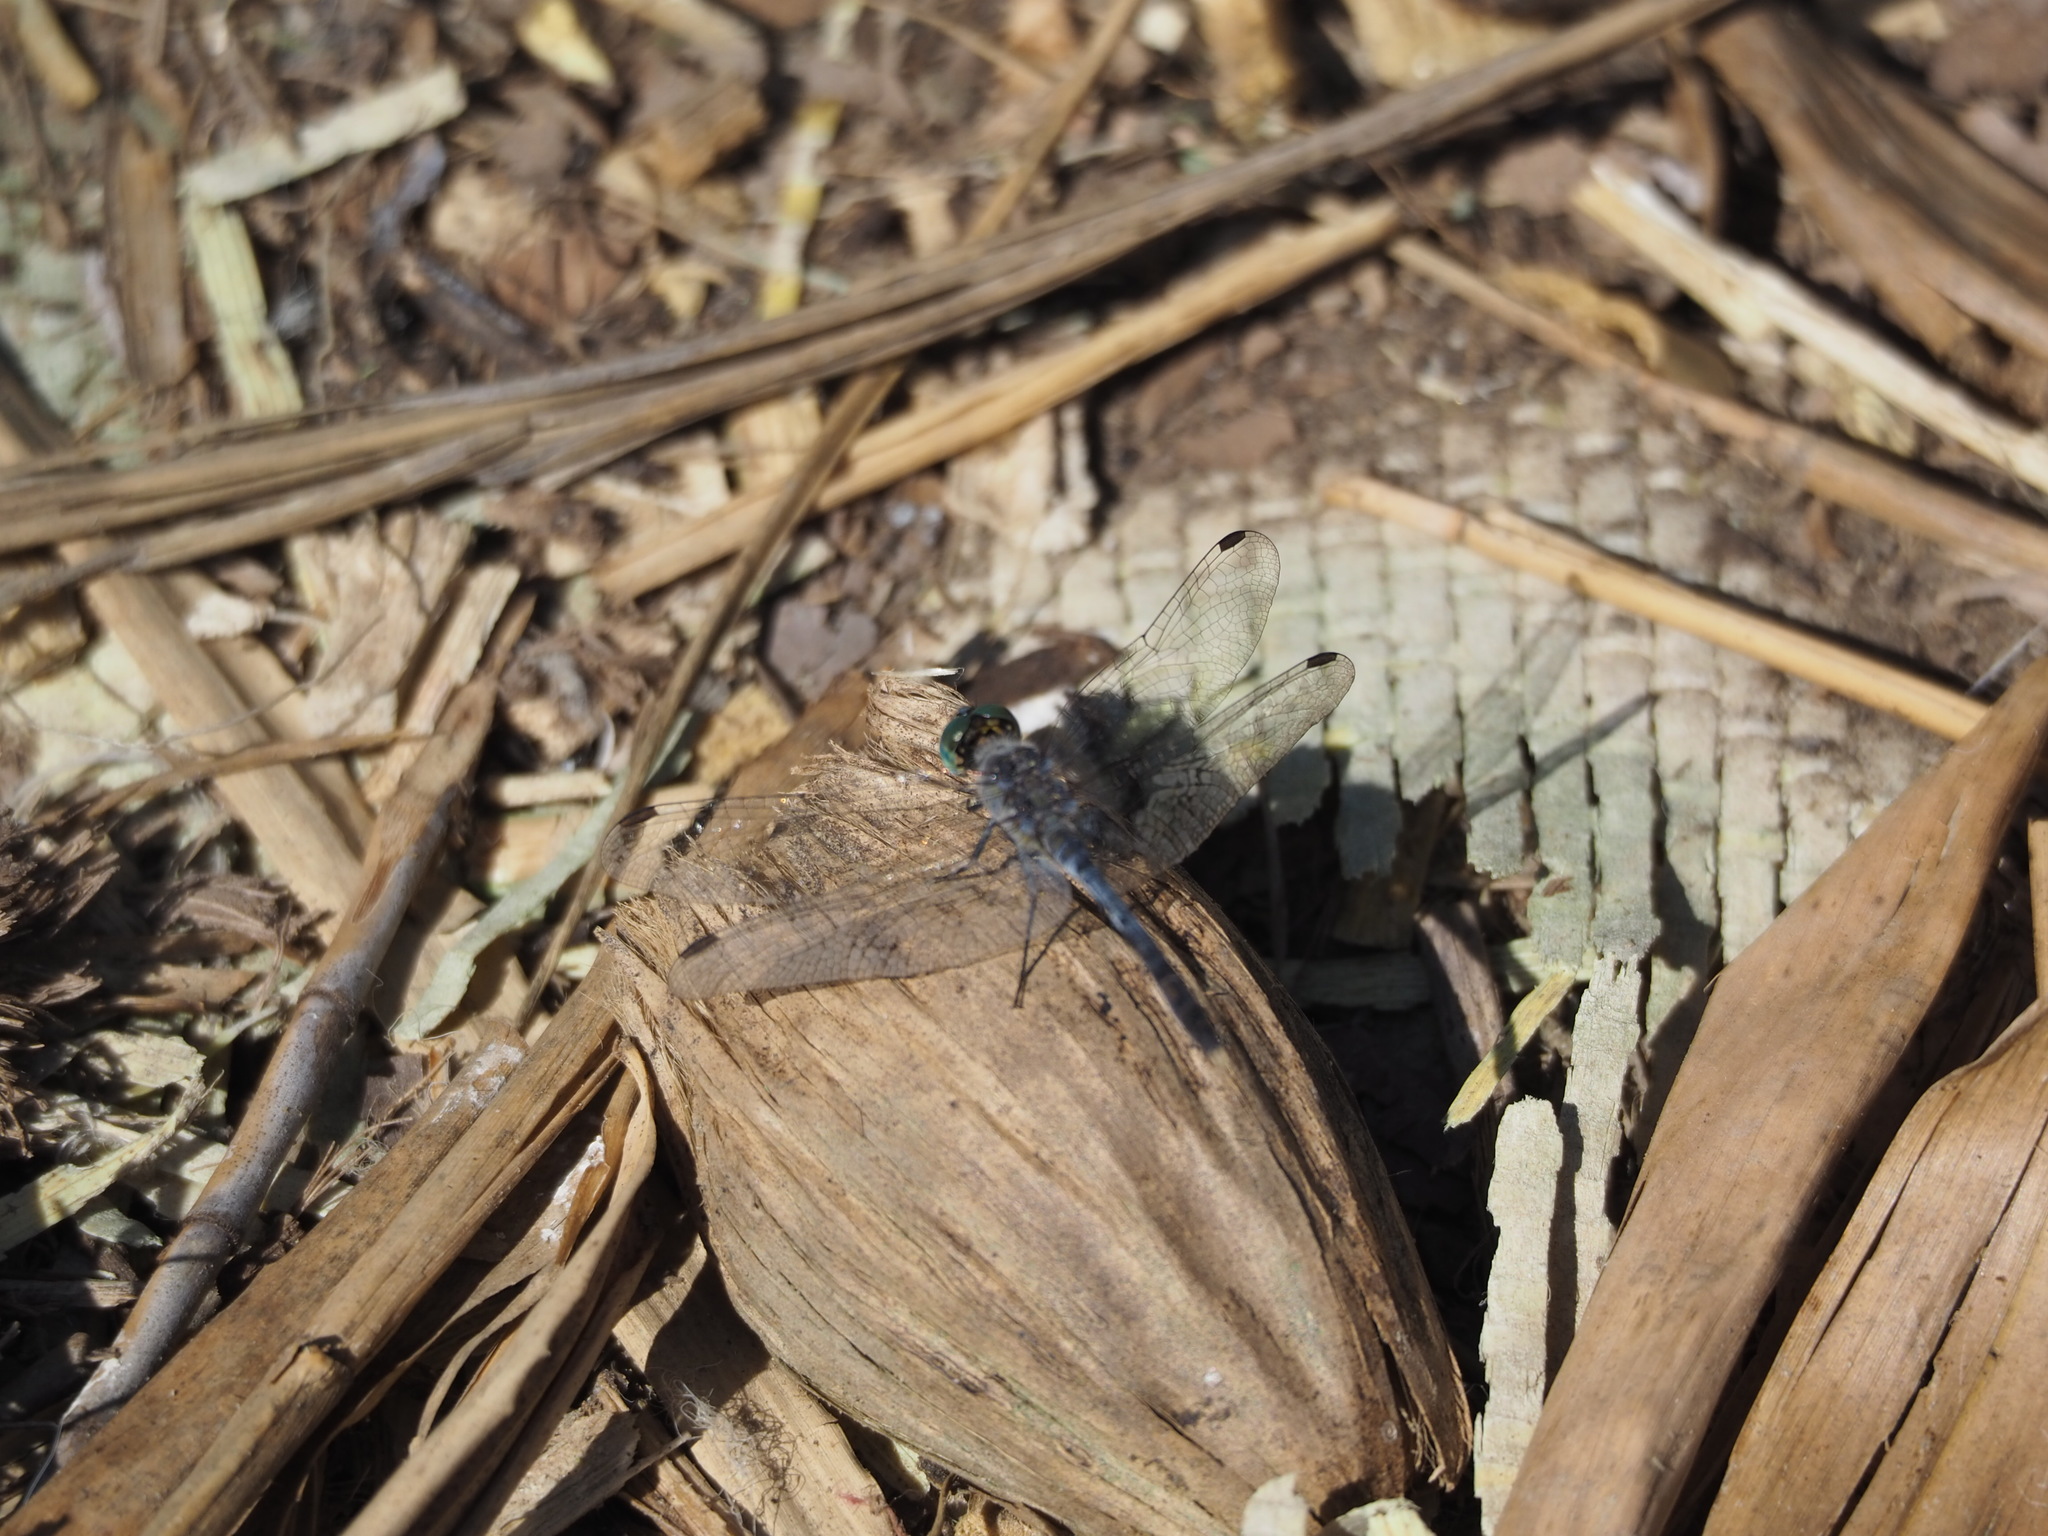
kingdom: Animalia
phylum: Arthropoda
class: Insecta
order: Odonata
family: Libellulidae
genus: Diplacodes
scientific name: Diplacodes trivialis
